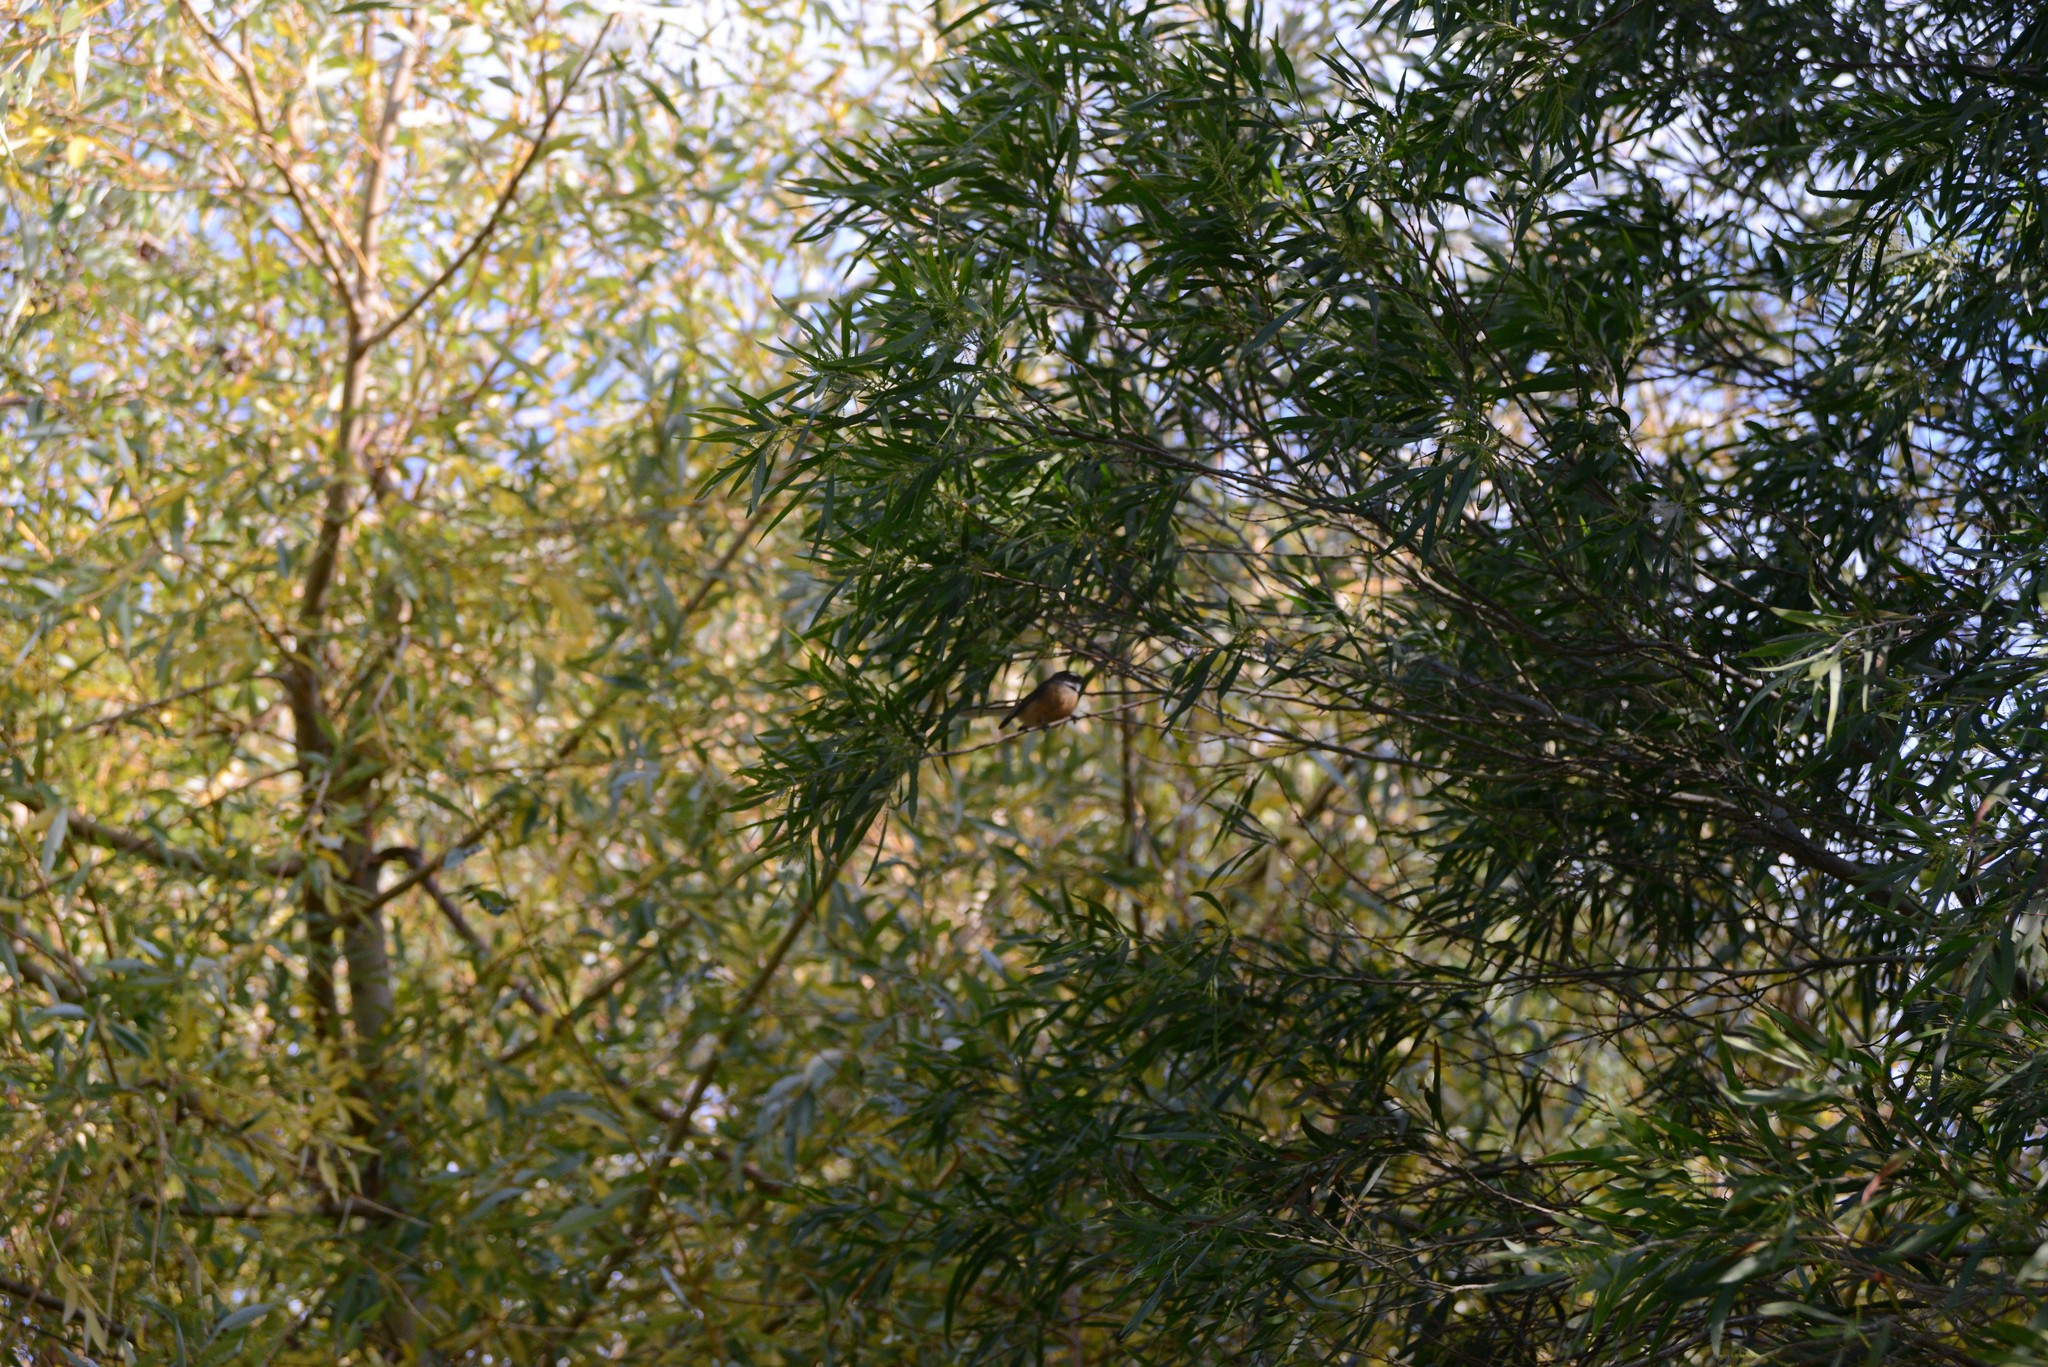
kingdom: Animalia
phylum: Chordata
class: Aves
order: Passeriformes
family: Rhipiduridae
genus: Rhipidura
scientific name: Rhipidura fuliginosa
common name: New zealand fantail
